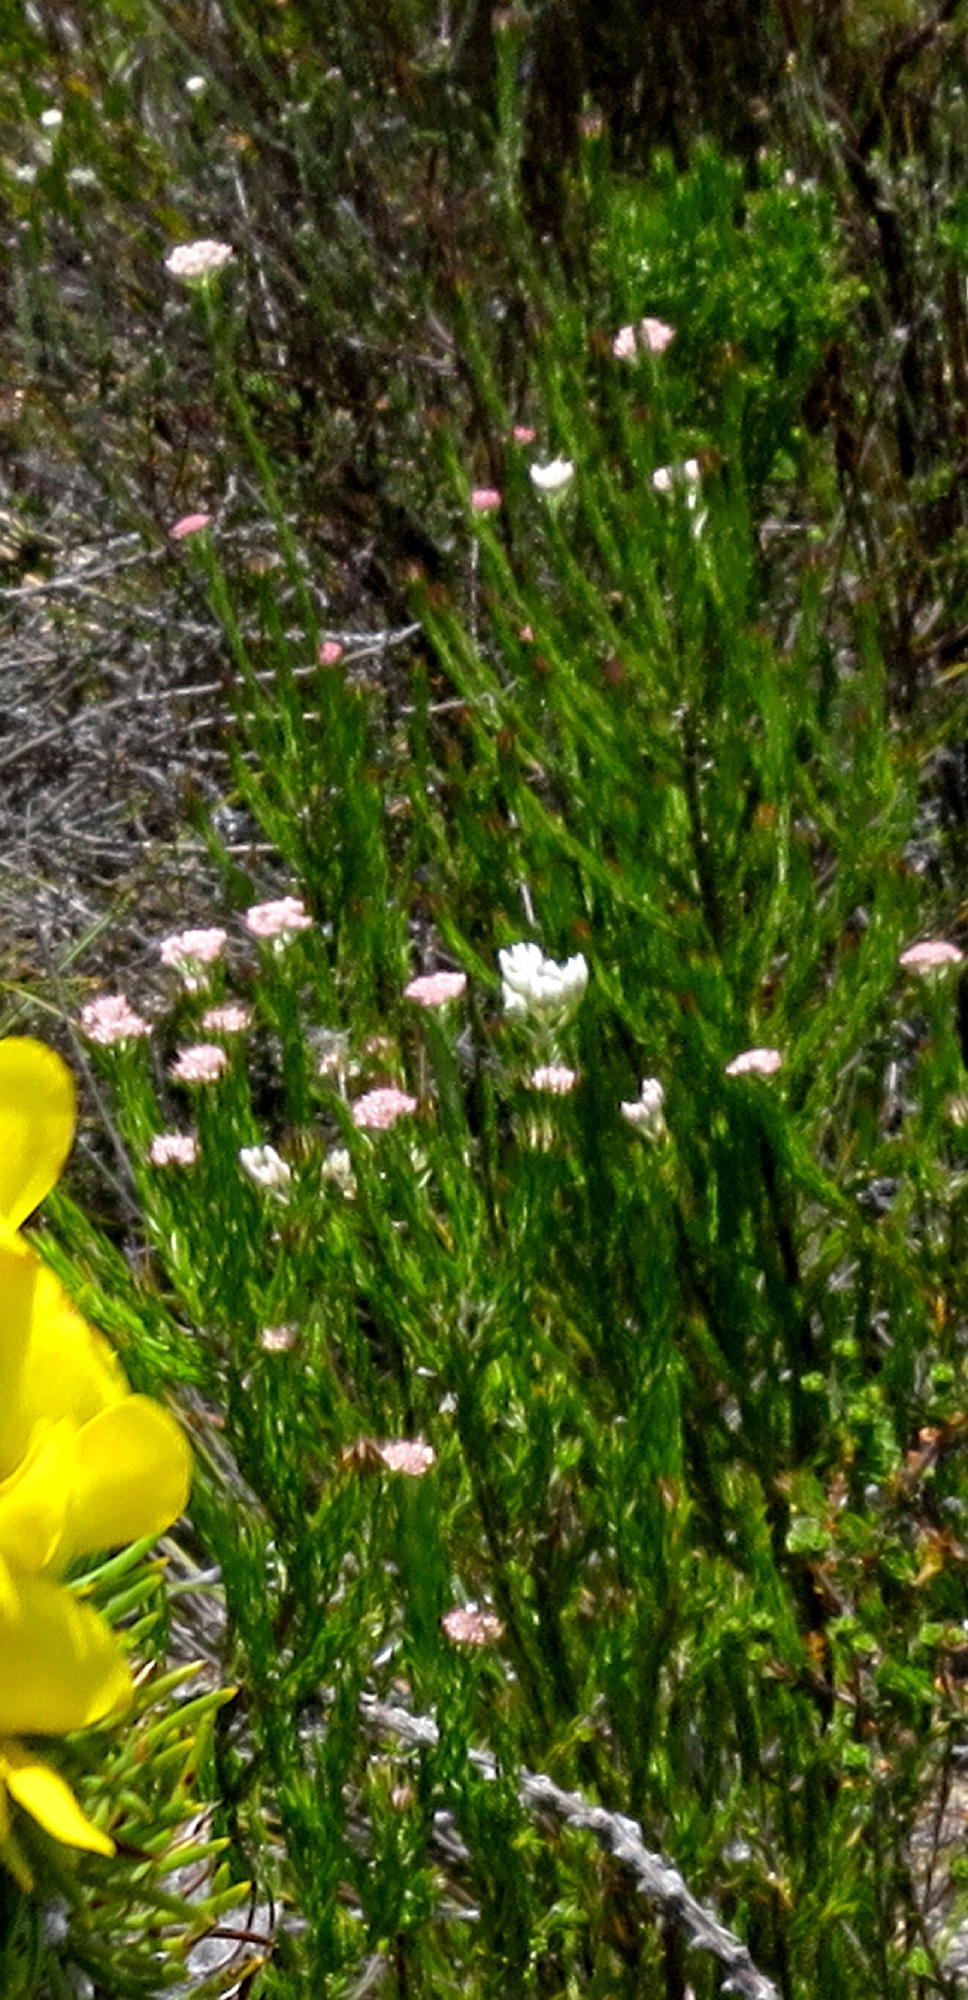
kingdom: Plantae
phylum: Tracheophyta
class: Magnoliopsida
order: Asterales
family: Asteraceae
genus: Metalasia
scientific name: Metalasia pulcherrima
